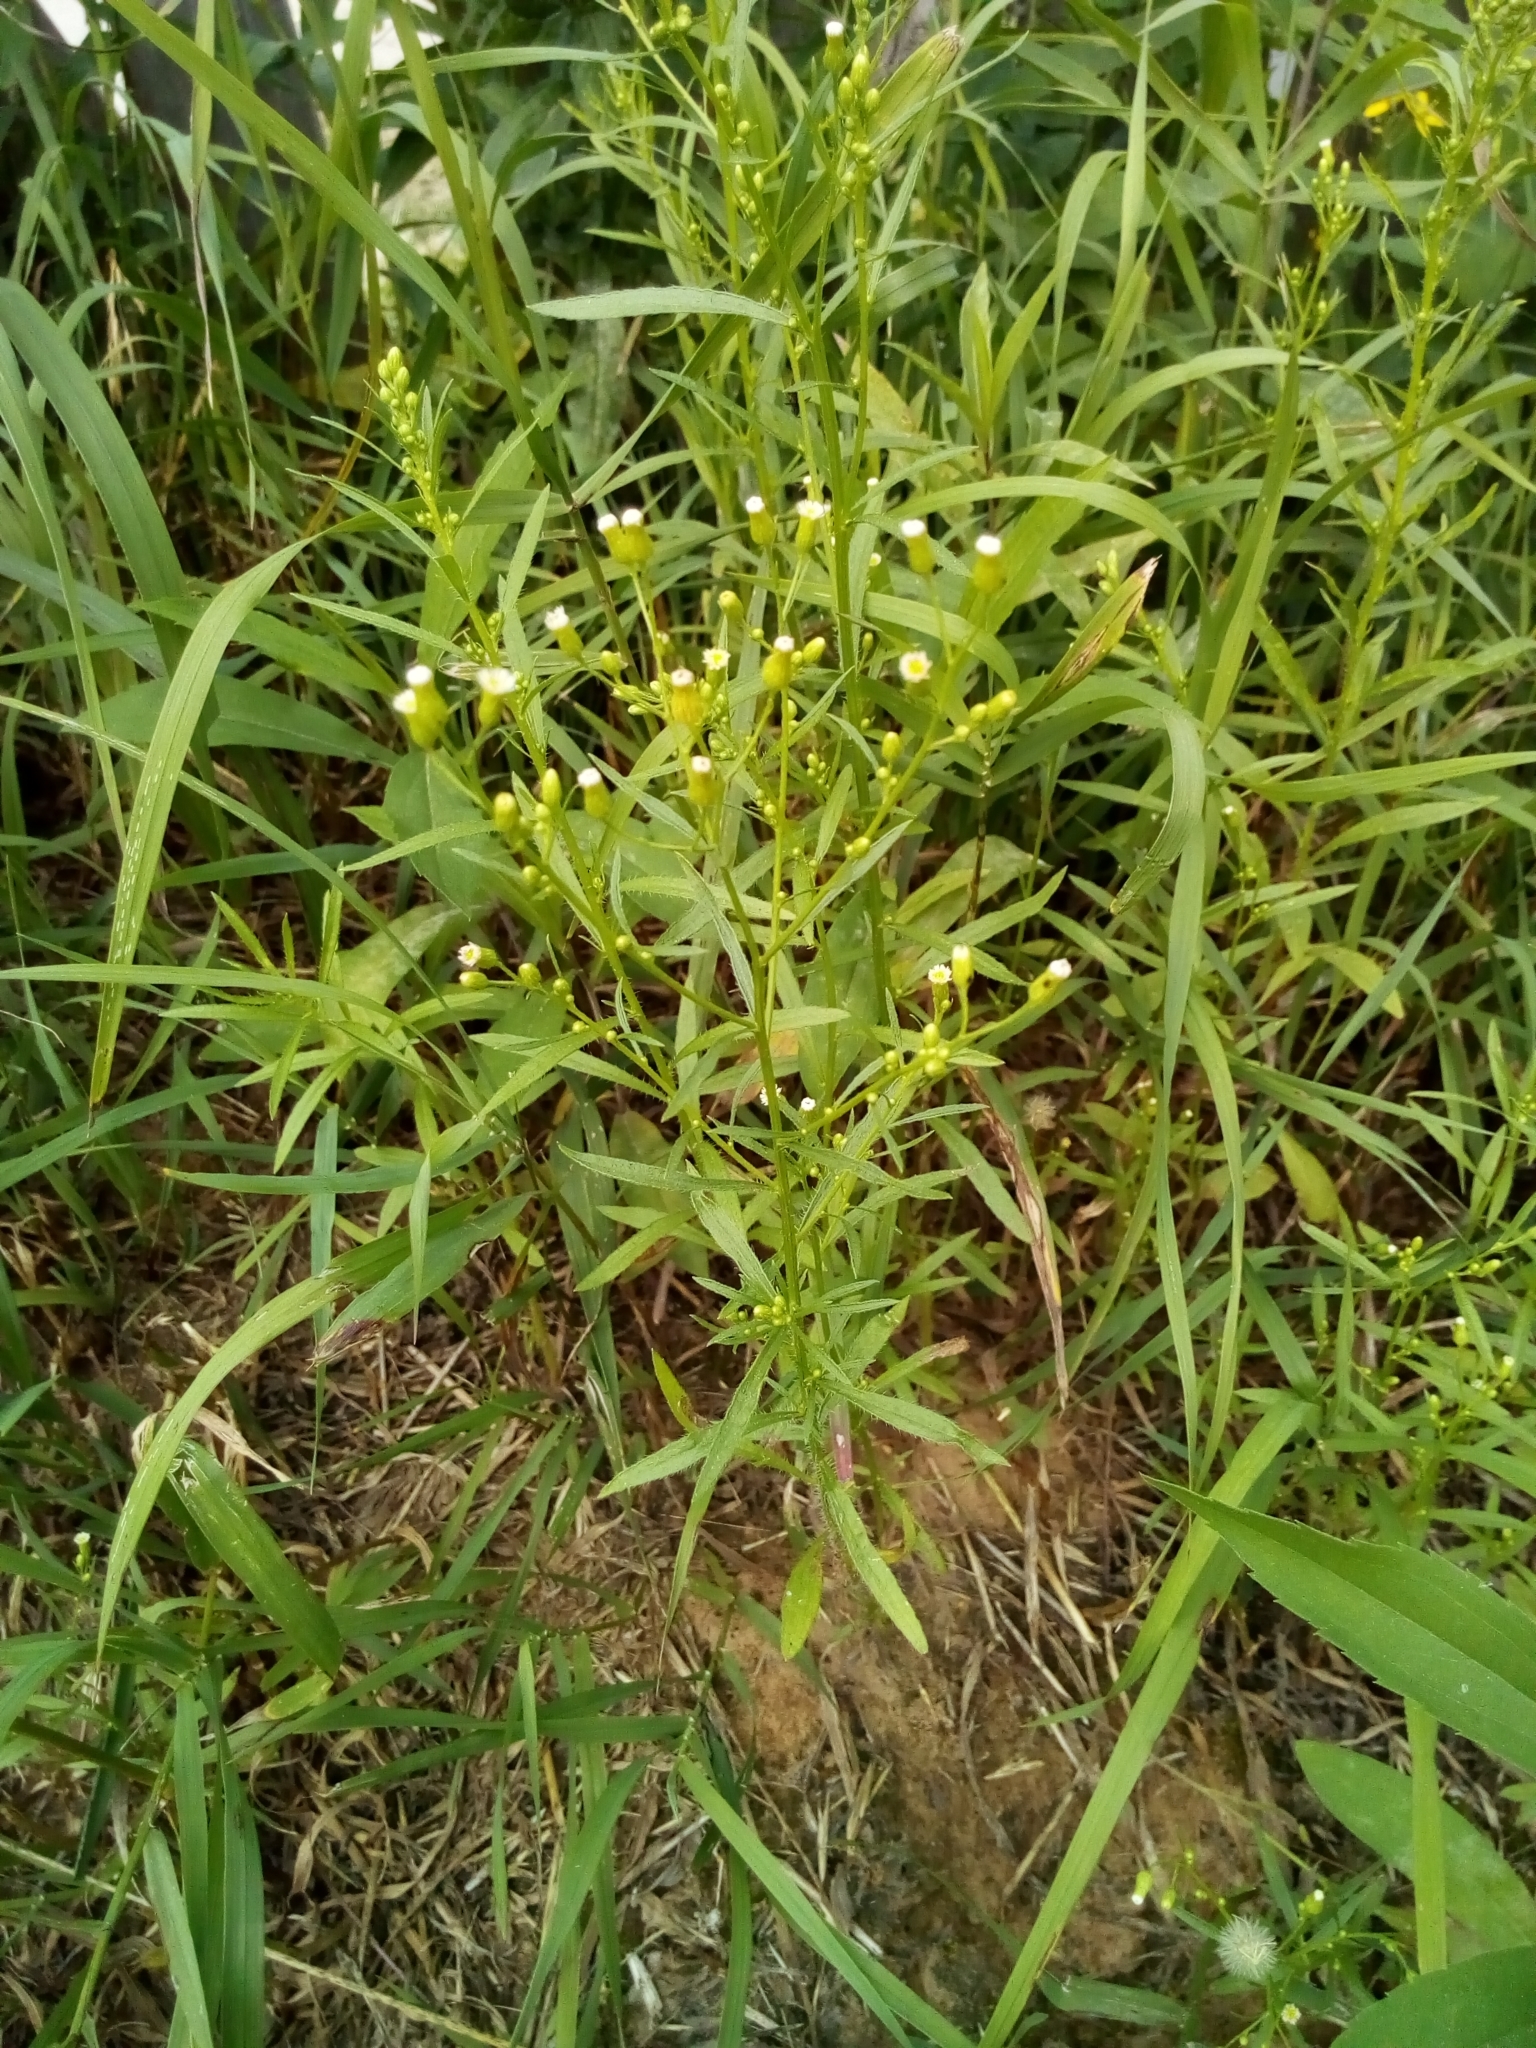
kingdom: Plantae
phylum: Tracheophyta
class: Magnoliopsida
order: Asterales
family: Asteraceae
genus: Erigeron
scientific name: Erigeron canadensis
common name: Canadian fleabane
